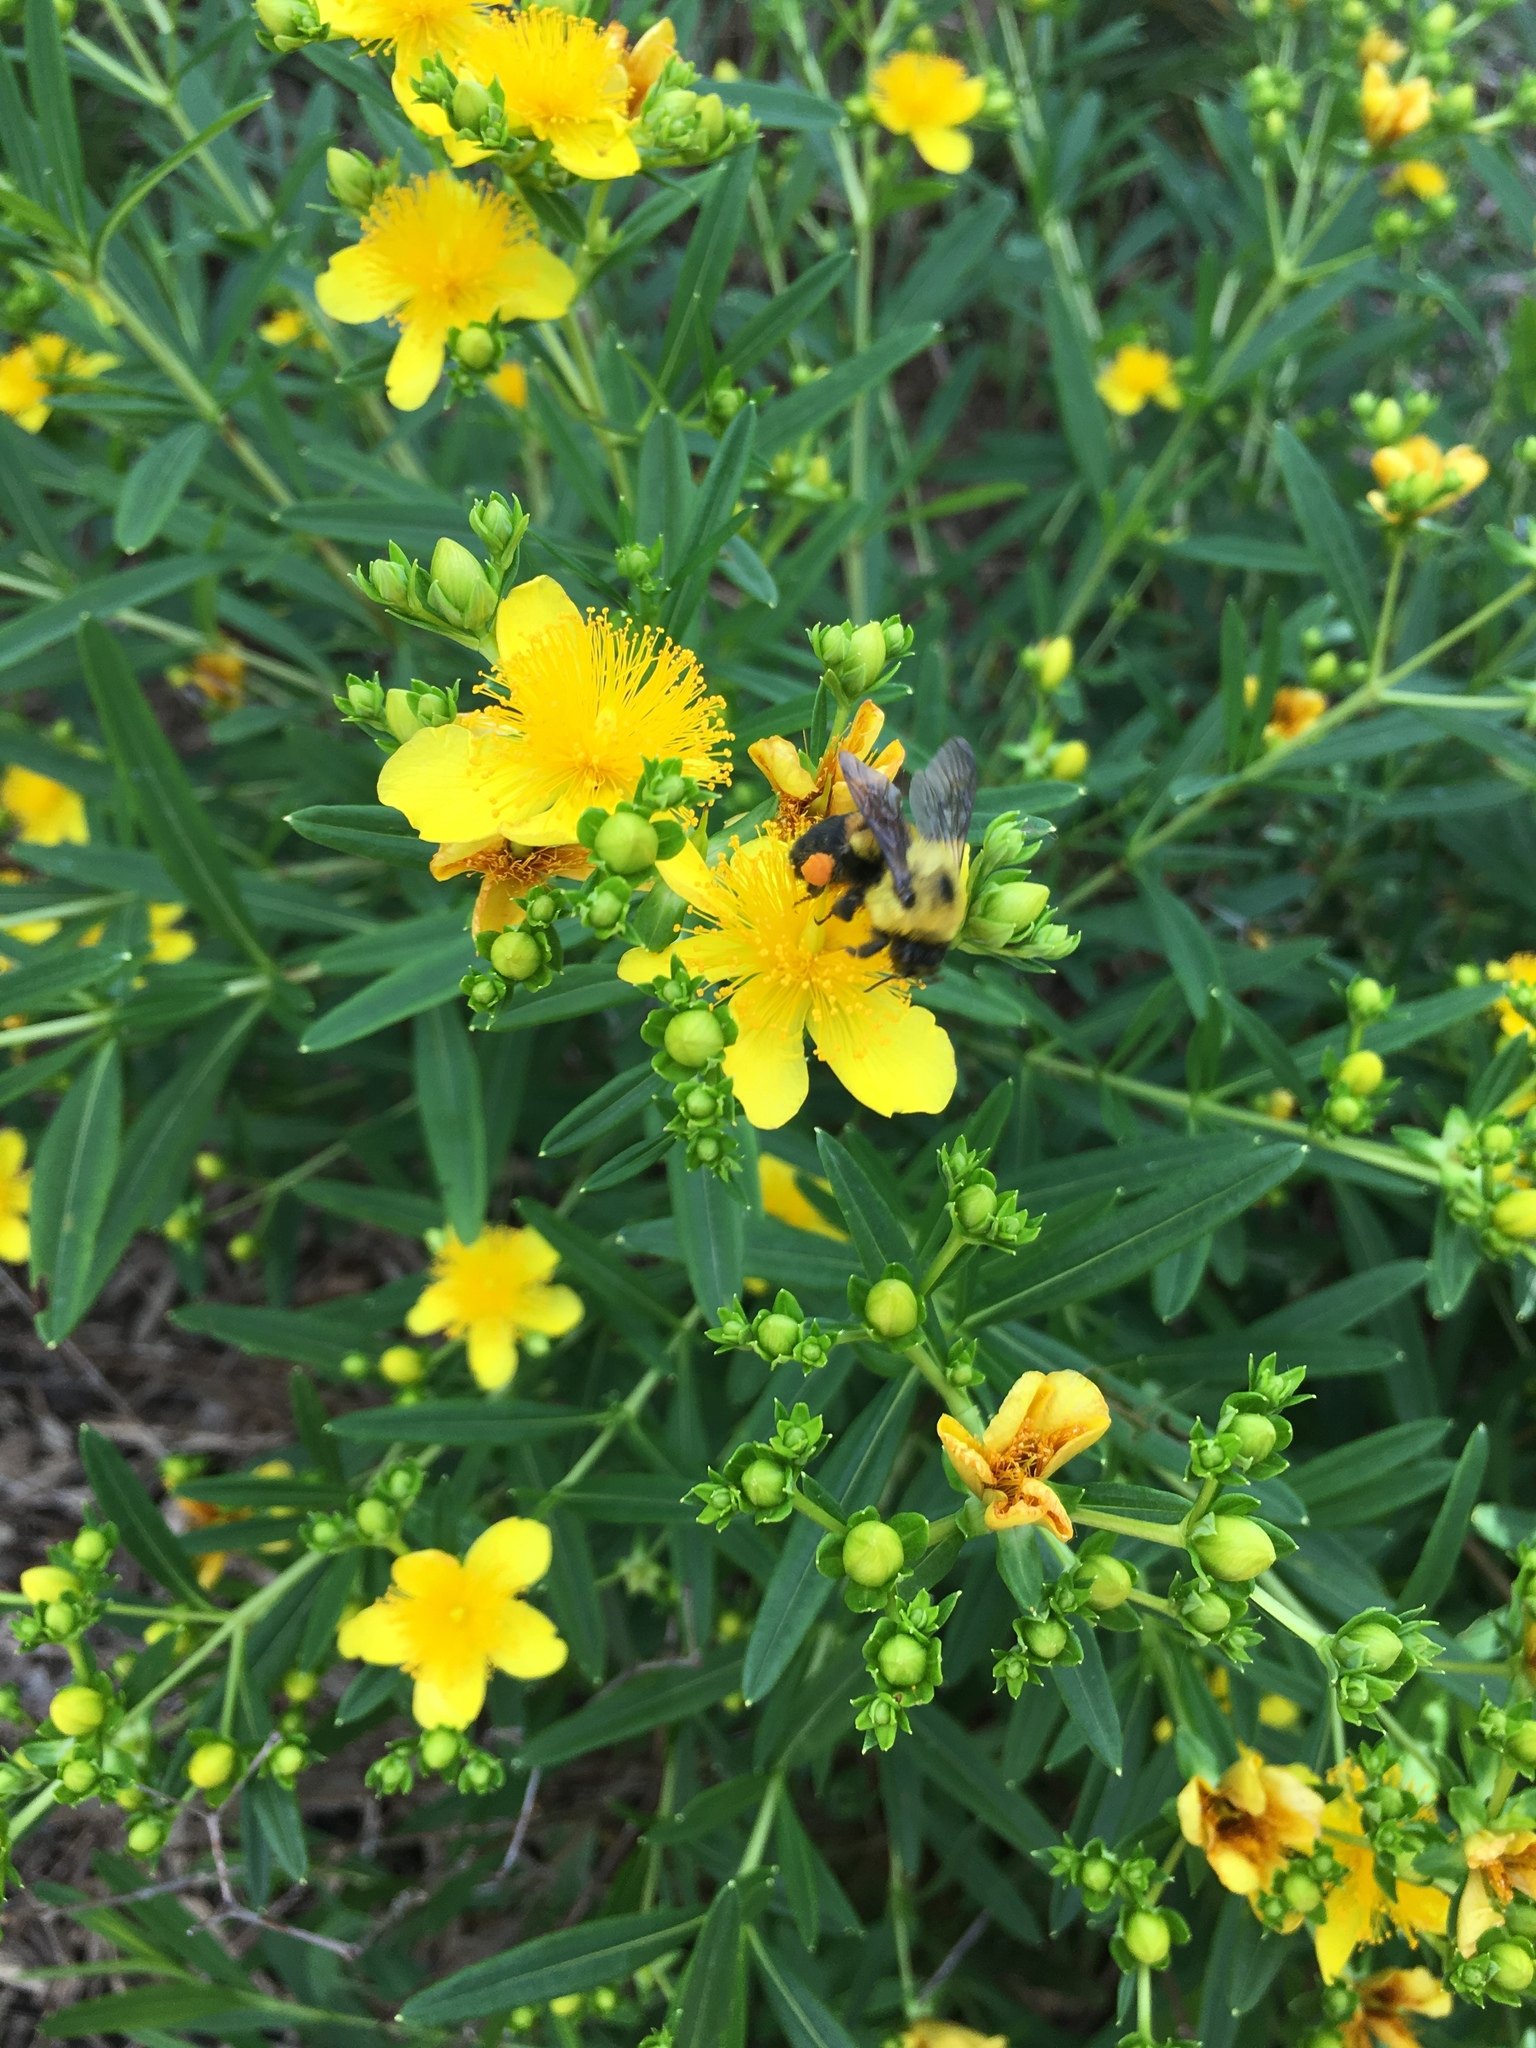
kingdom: Animalia
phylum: Arthropoda
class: Insecta
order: Hymenoptera
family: Apidae
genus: Bombus
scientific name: Bombus griseocollis
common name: Brown-belted bumble bee
